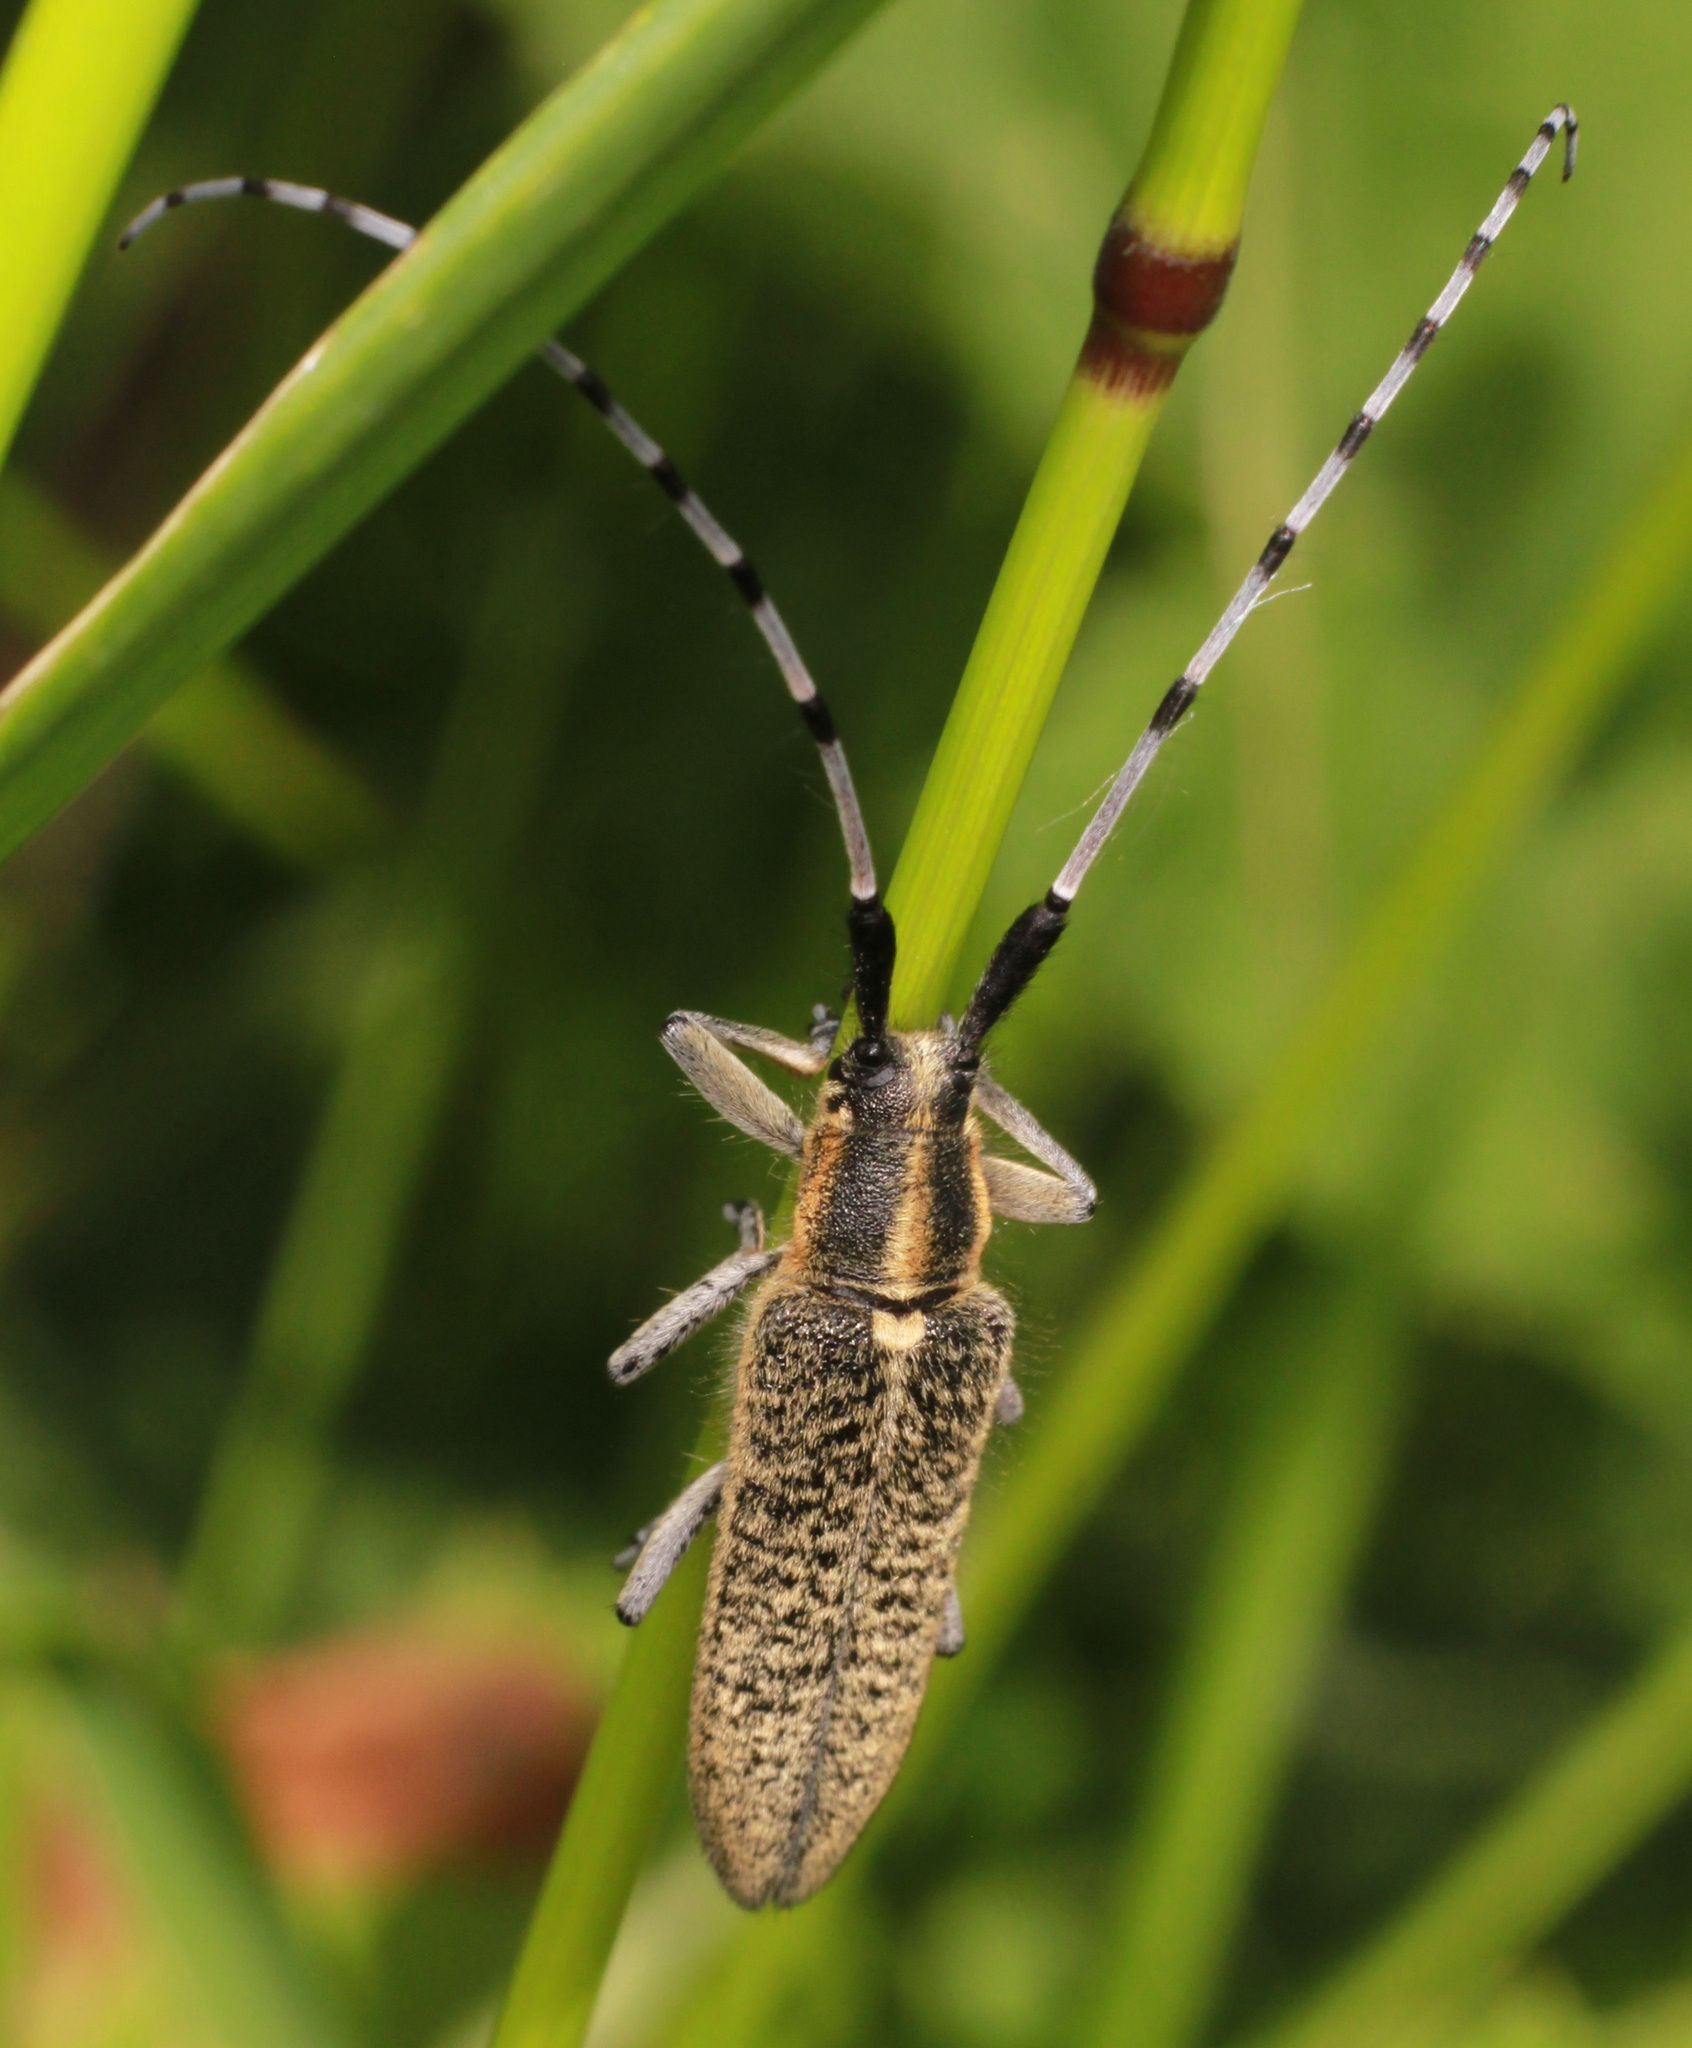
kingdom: Animalia
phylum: Arthropoda
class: Insecta
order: Coleoptera
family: Cerambycidae
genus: Agapanthia
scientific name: Agapanthia villosoviridescens
